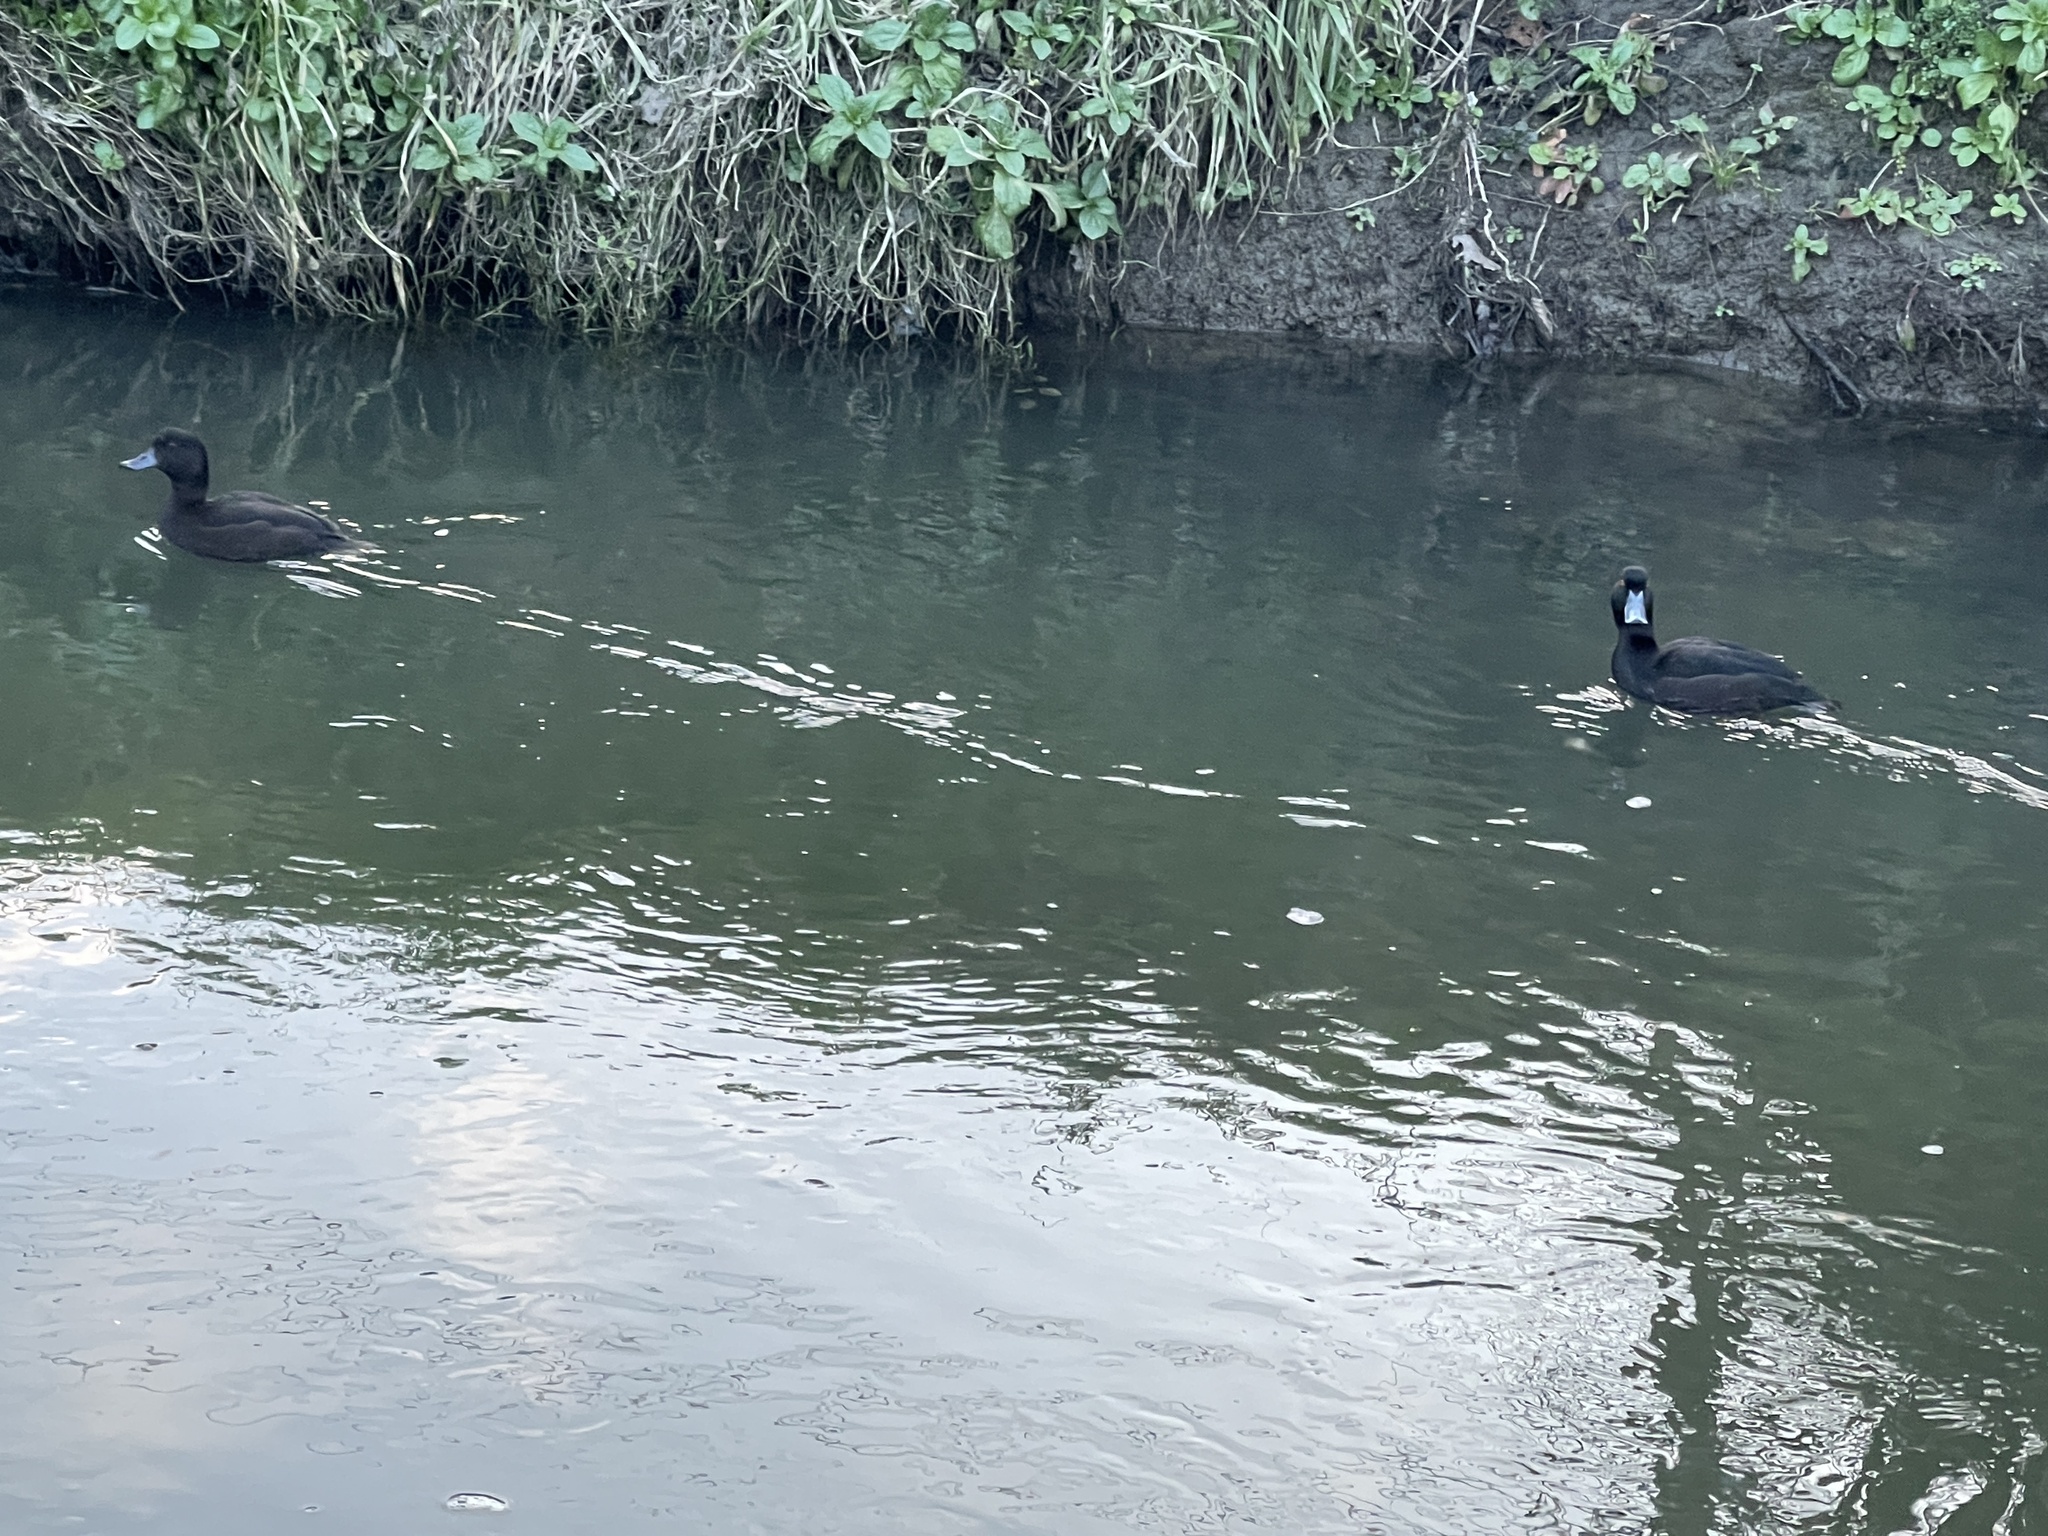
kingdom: Animalia
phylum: Chordata
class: Aves
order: Anseriformes
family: Anatidae
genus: Aythya
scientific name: Aythya novaeseelandiae
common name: New zealand scaup
